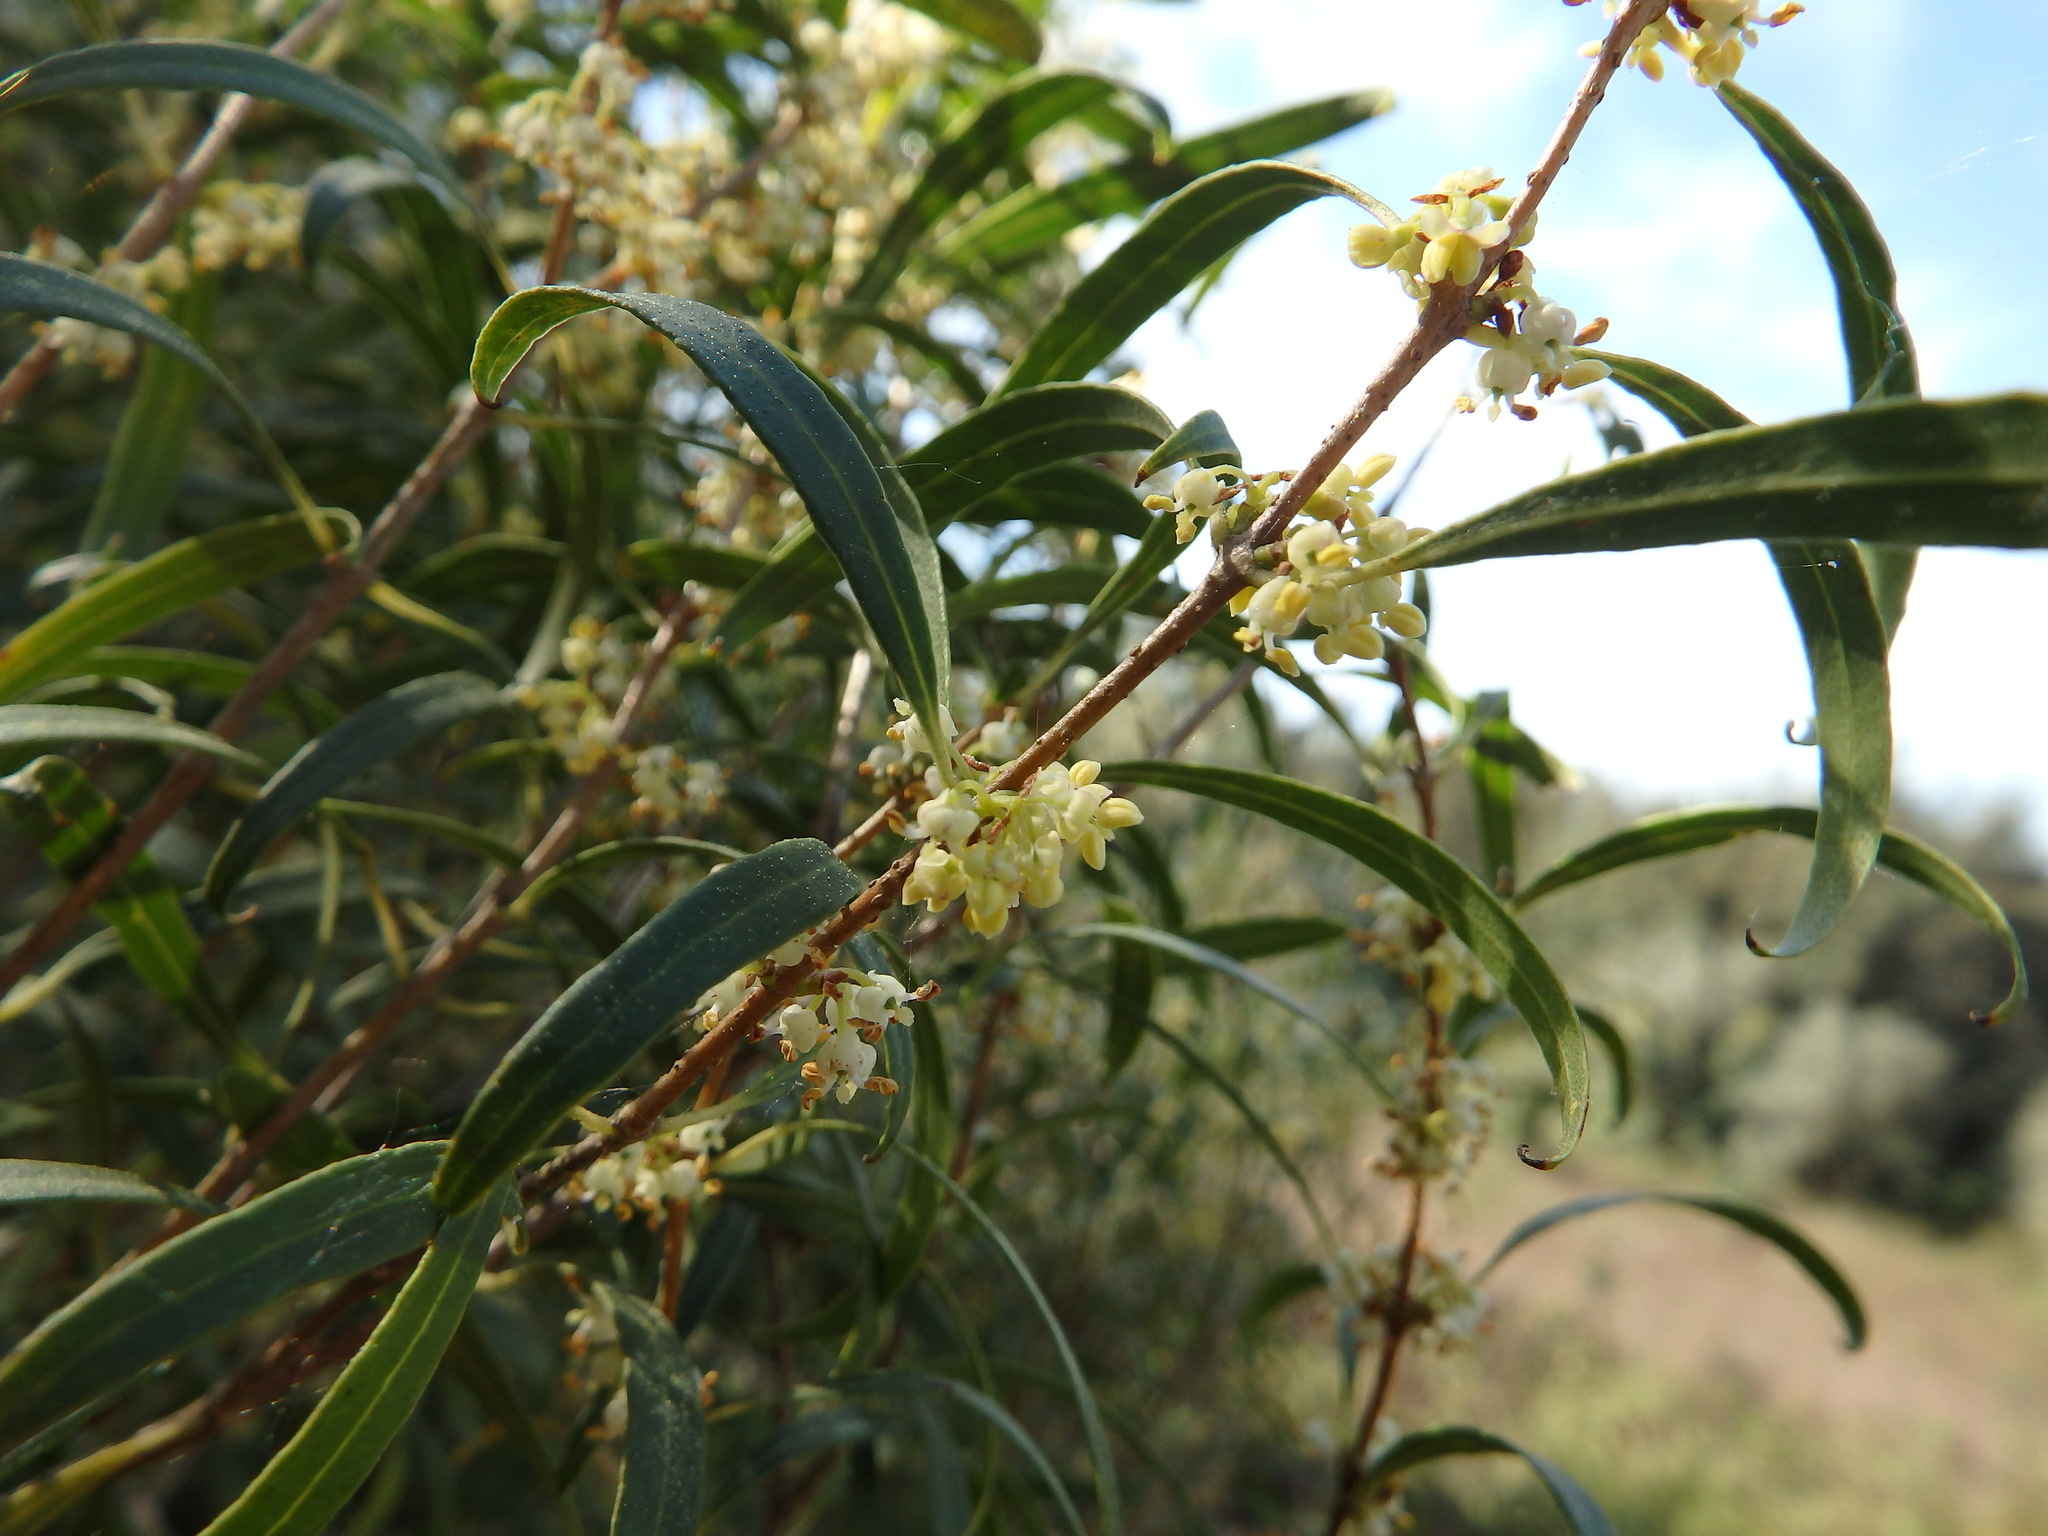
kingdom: Plantae
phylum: Tracheophyta
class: Magnoliopsida
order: Lamiales
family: Oleaceae
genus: Phillyrea
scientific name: Phillyrea angustifolia
